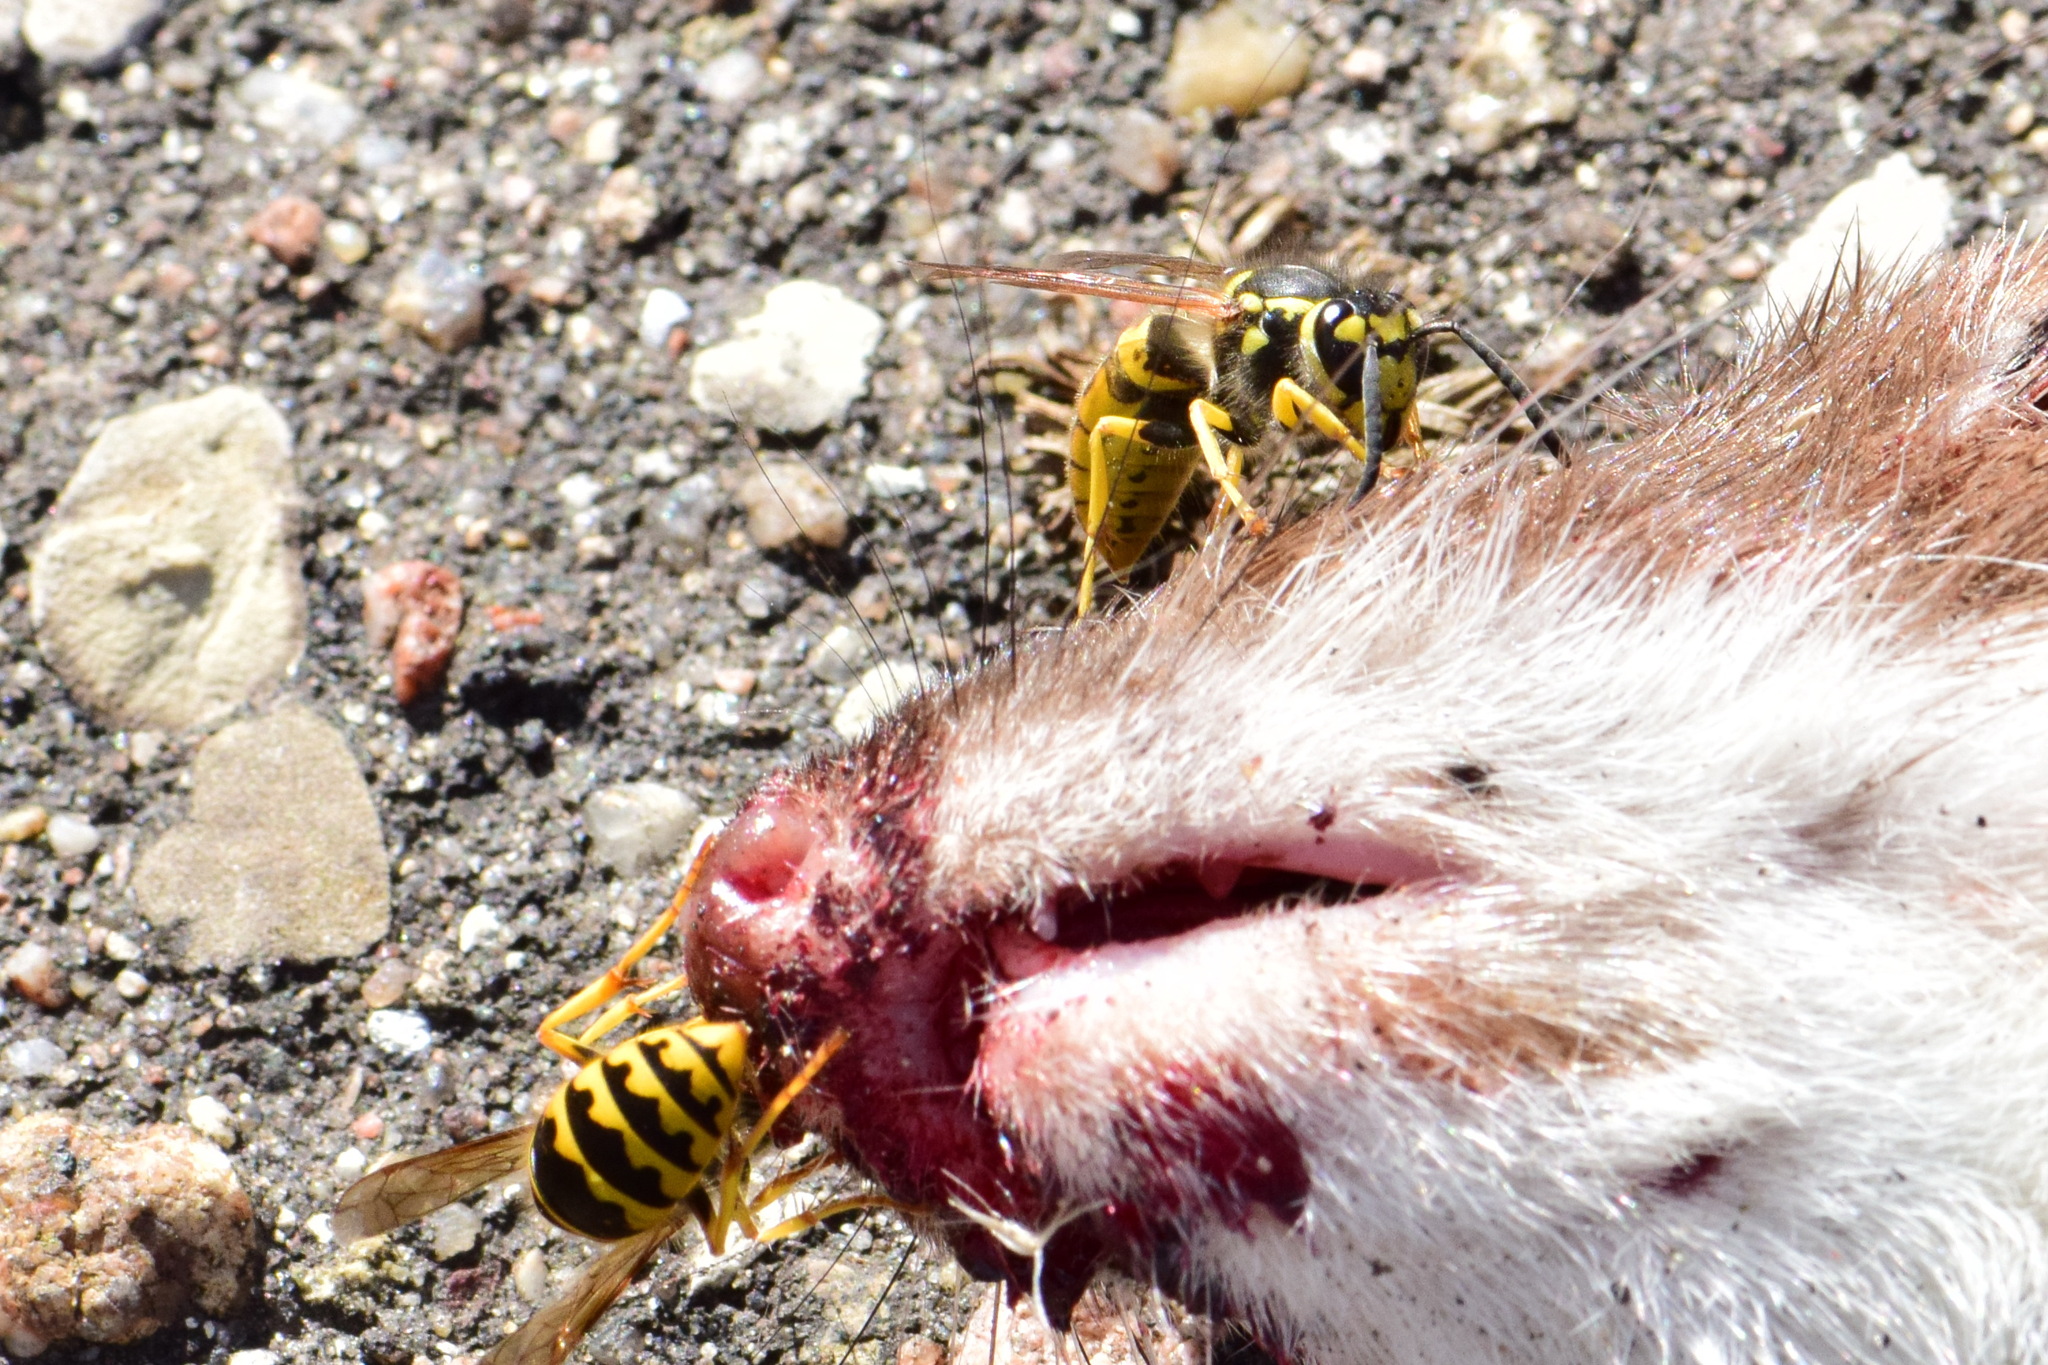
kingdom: Animalia
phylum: Arthropoda
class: Insecta
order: Hymenoptera
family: Vespidae
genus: Vespula
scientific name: Vespula germanica
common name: German wasp
